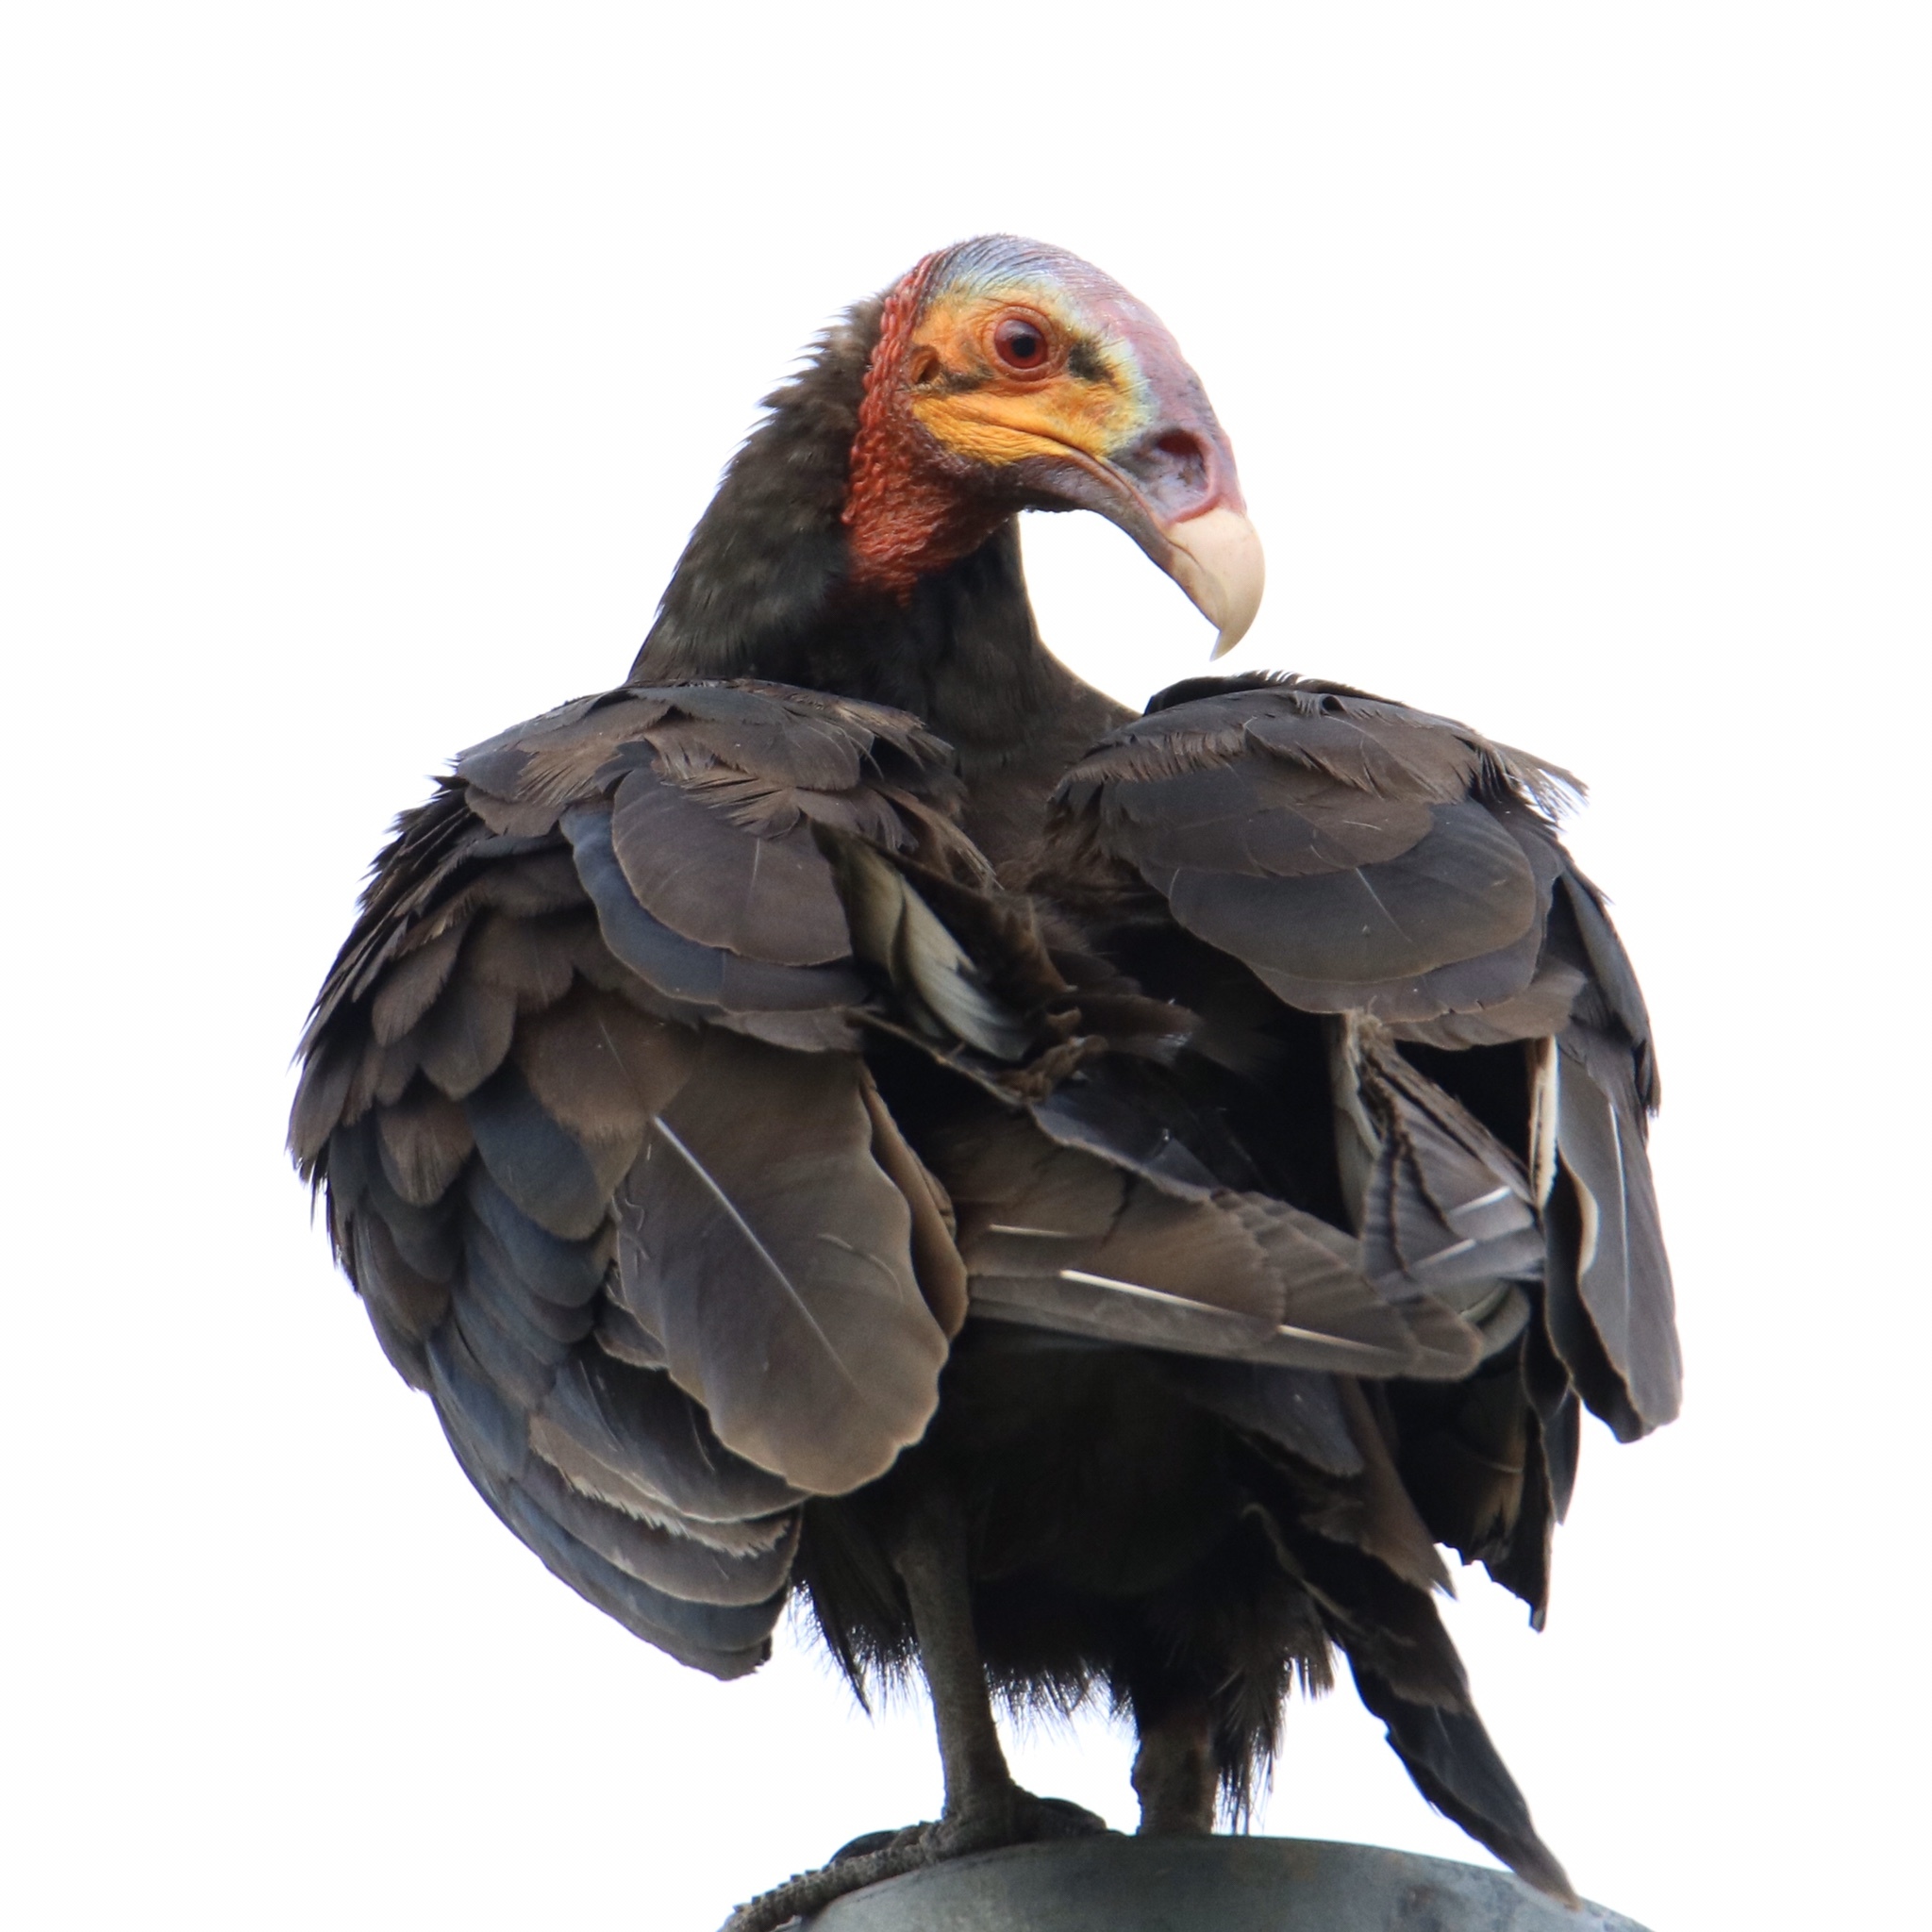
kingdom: Animalia
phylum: Chordata
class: Aves
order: Accipitriformes
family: Cathartidae
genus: Cathartes
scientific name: Cathartes burrovianus
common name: Lesser yellow-headed vulture
